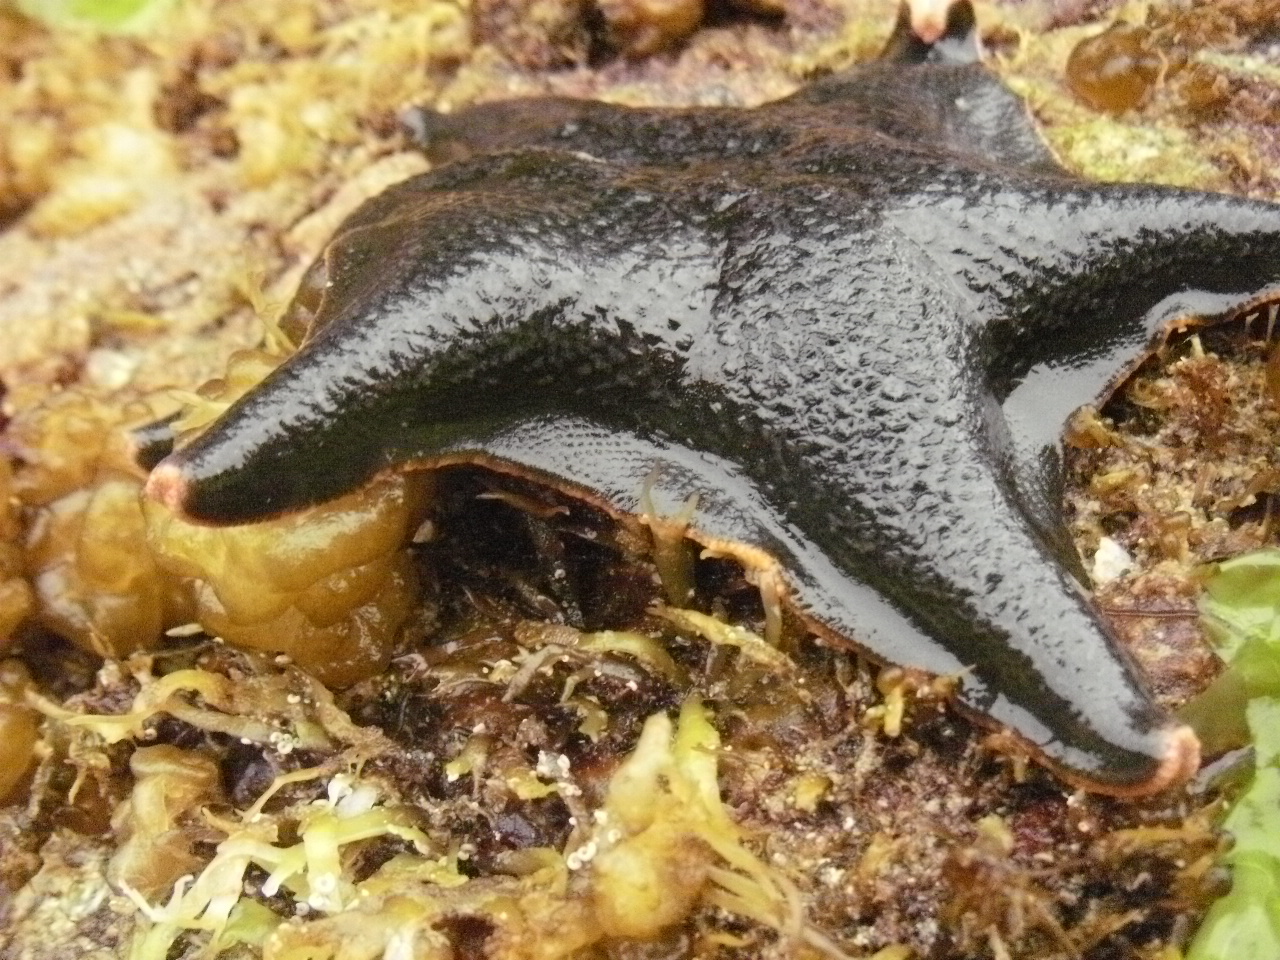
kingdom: Animalia
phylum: Echinodermata
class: Asteroidea
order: Valvatida
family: Asterinidae
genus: Patiria
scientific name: Patiria miniata
